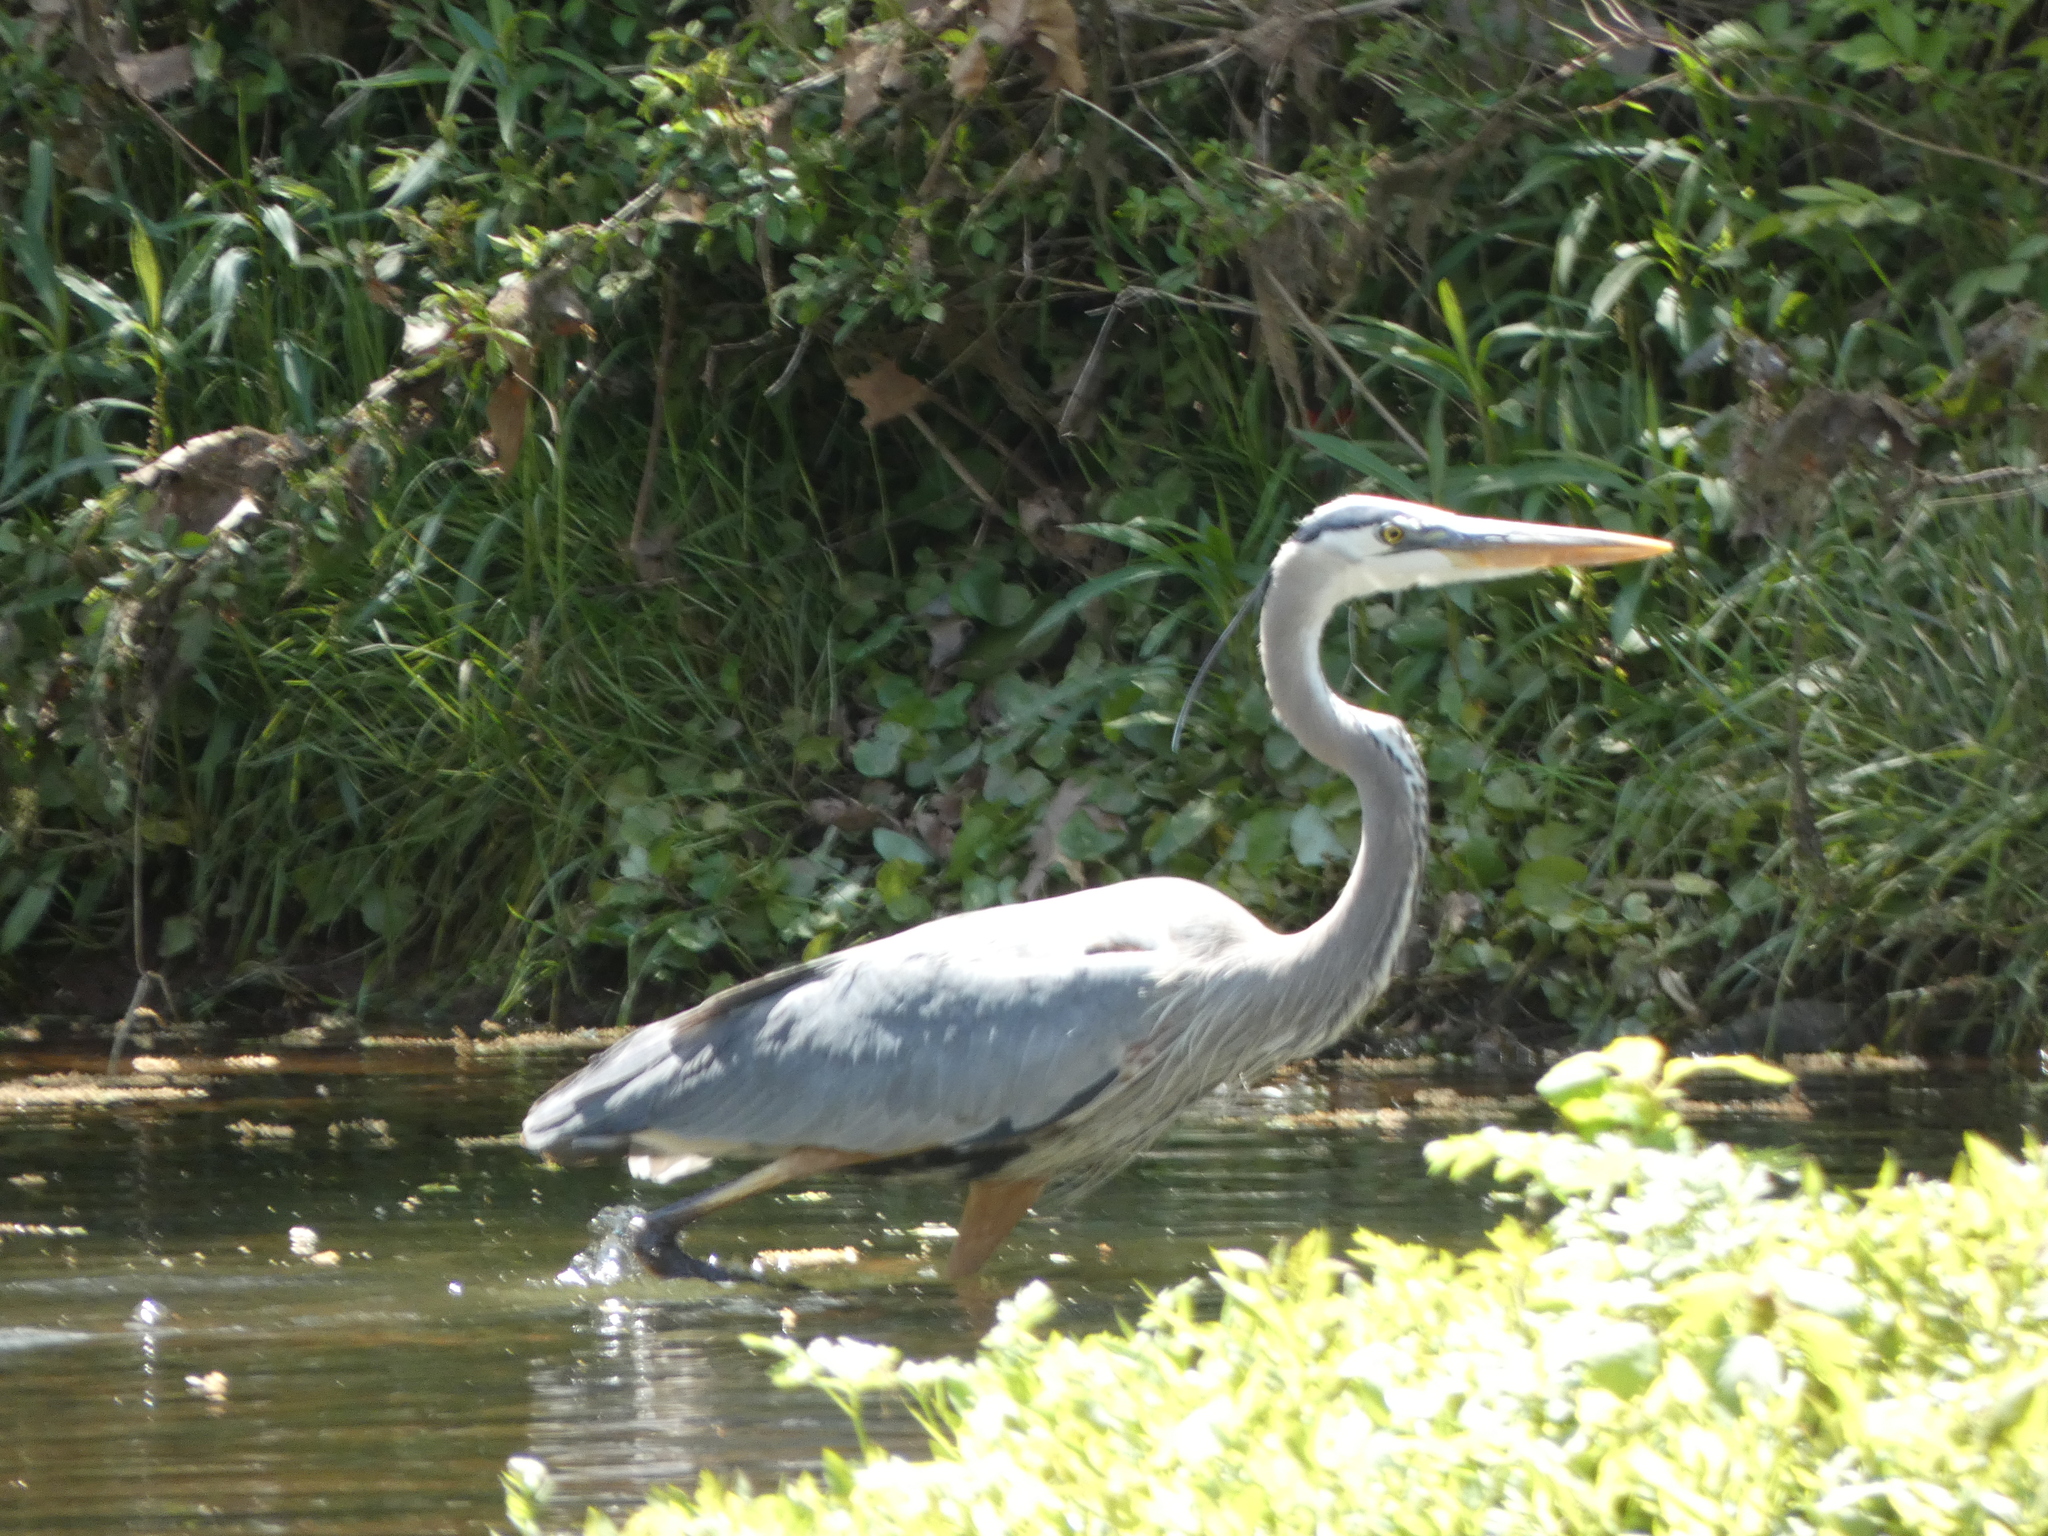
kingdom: Animalia
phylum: Chordata
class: Aves
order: Pelecaniformes
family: Ardeidae
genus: Ardea
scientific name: Ardea herodias
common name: Great blue heron
